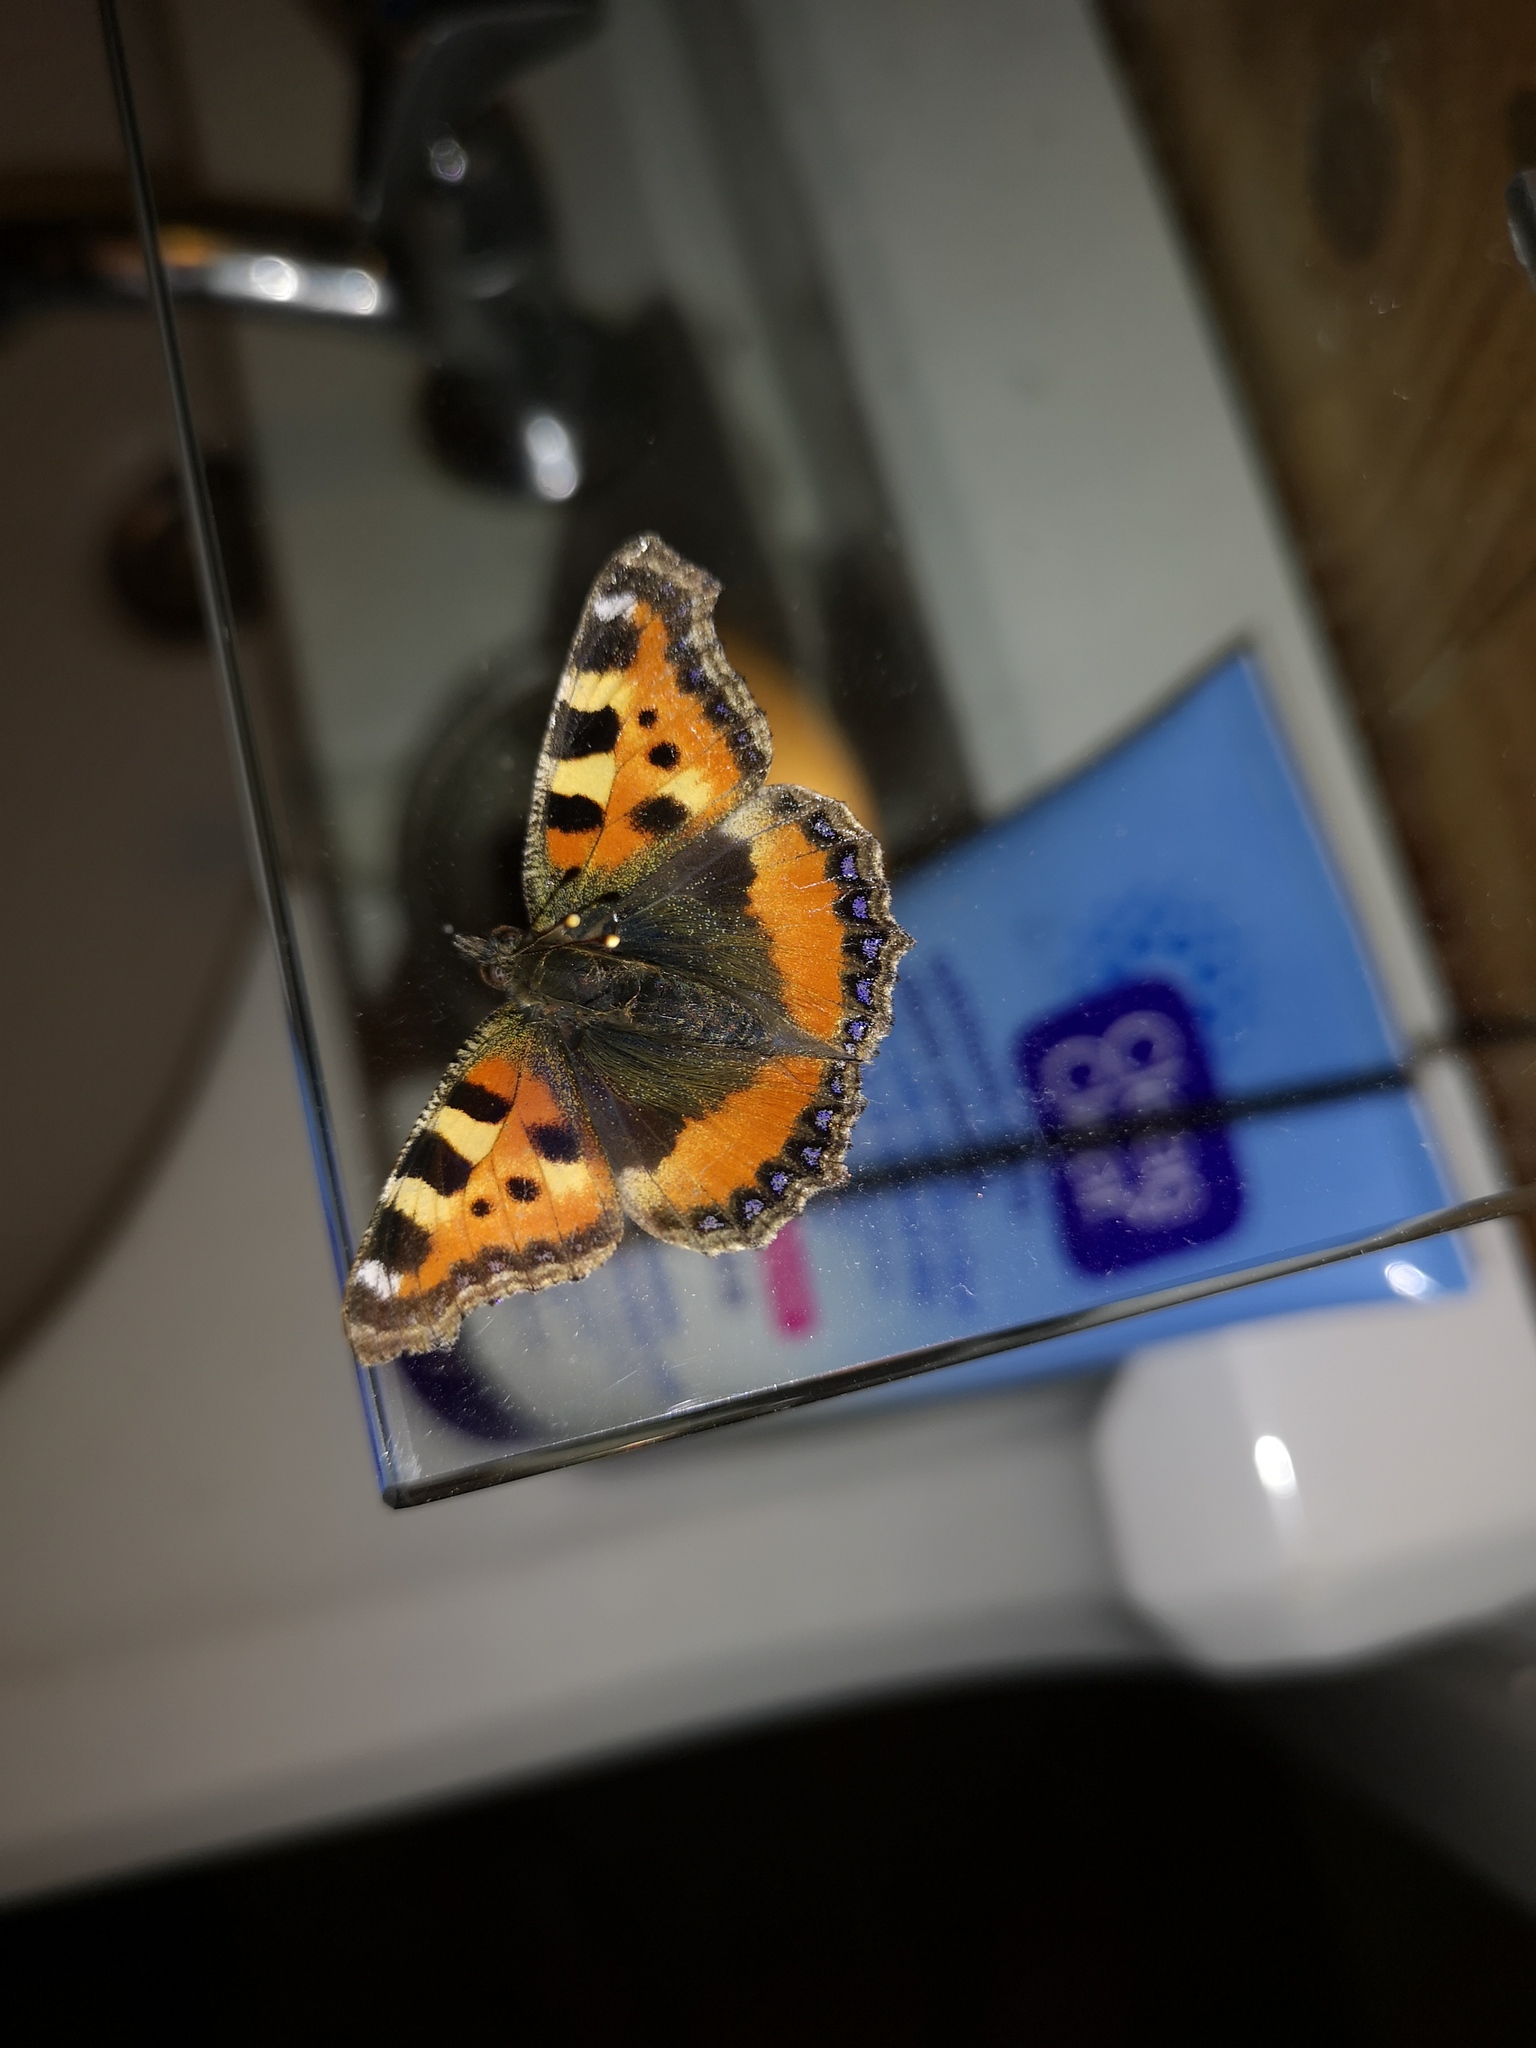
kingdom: Animalia
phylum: Arthropoda
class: Insecta
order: Lepidoptera
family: Nymphalidae
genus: Aglais
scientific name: Aglais urticae
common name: Small tortoiseshell
